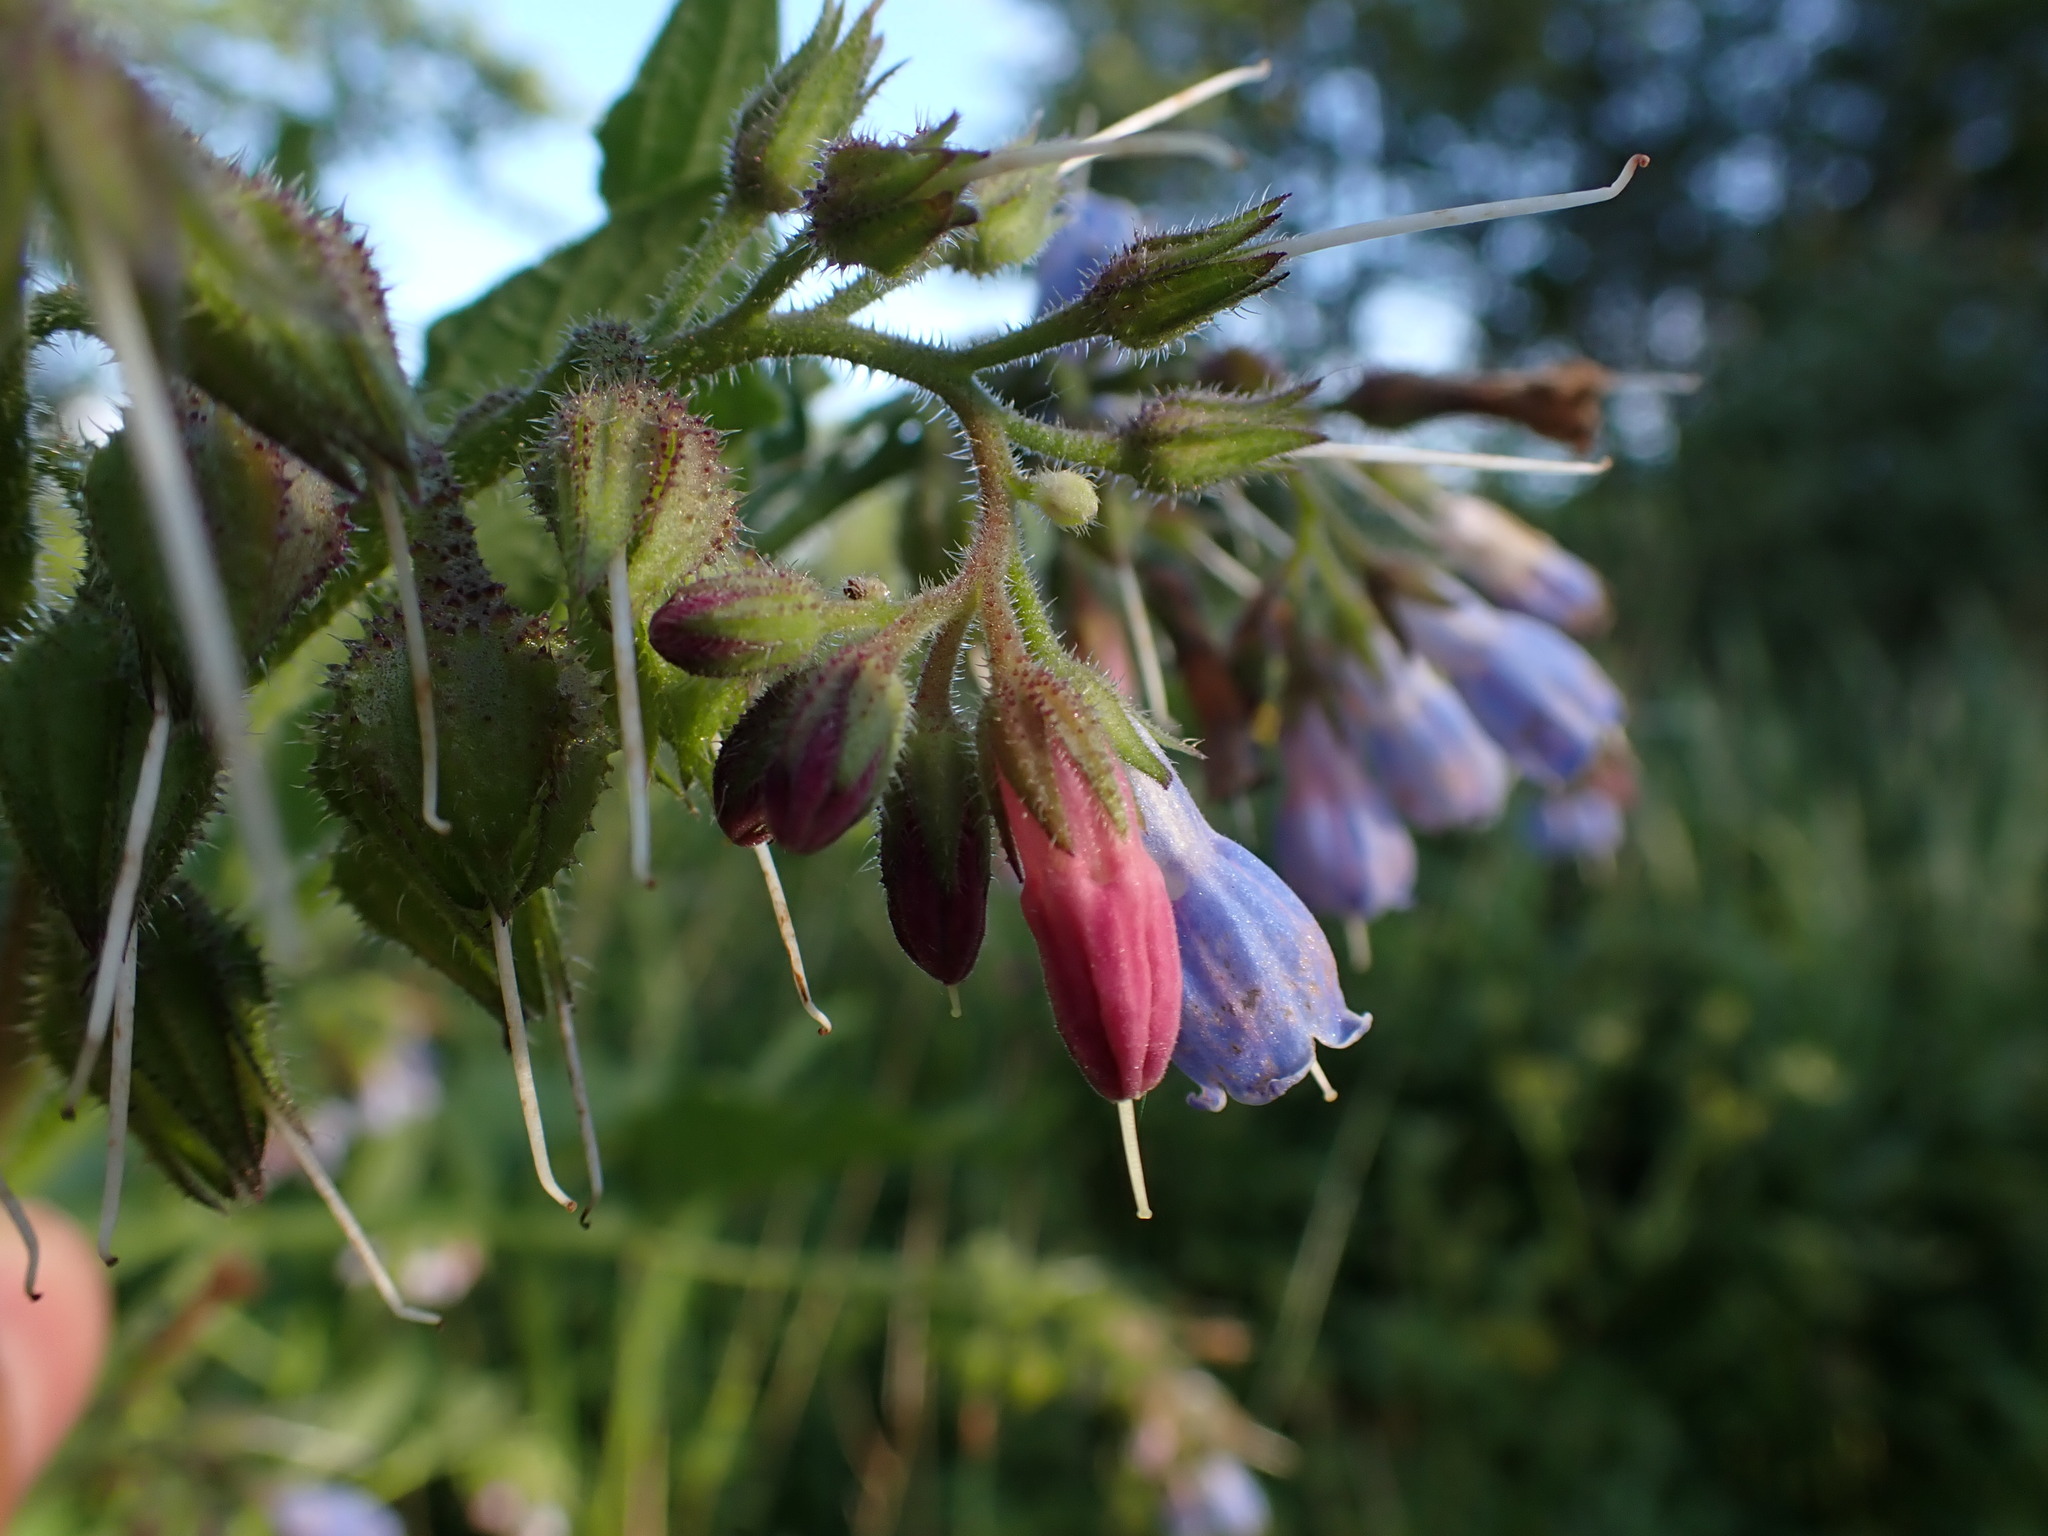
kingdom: Plantae
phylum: Tracheophyta
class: Magnoliopsida
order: Boraginales
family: Boraginaceae
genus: Symphytum
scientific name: Symphytum uplandicum
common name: Russian comfrey
